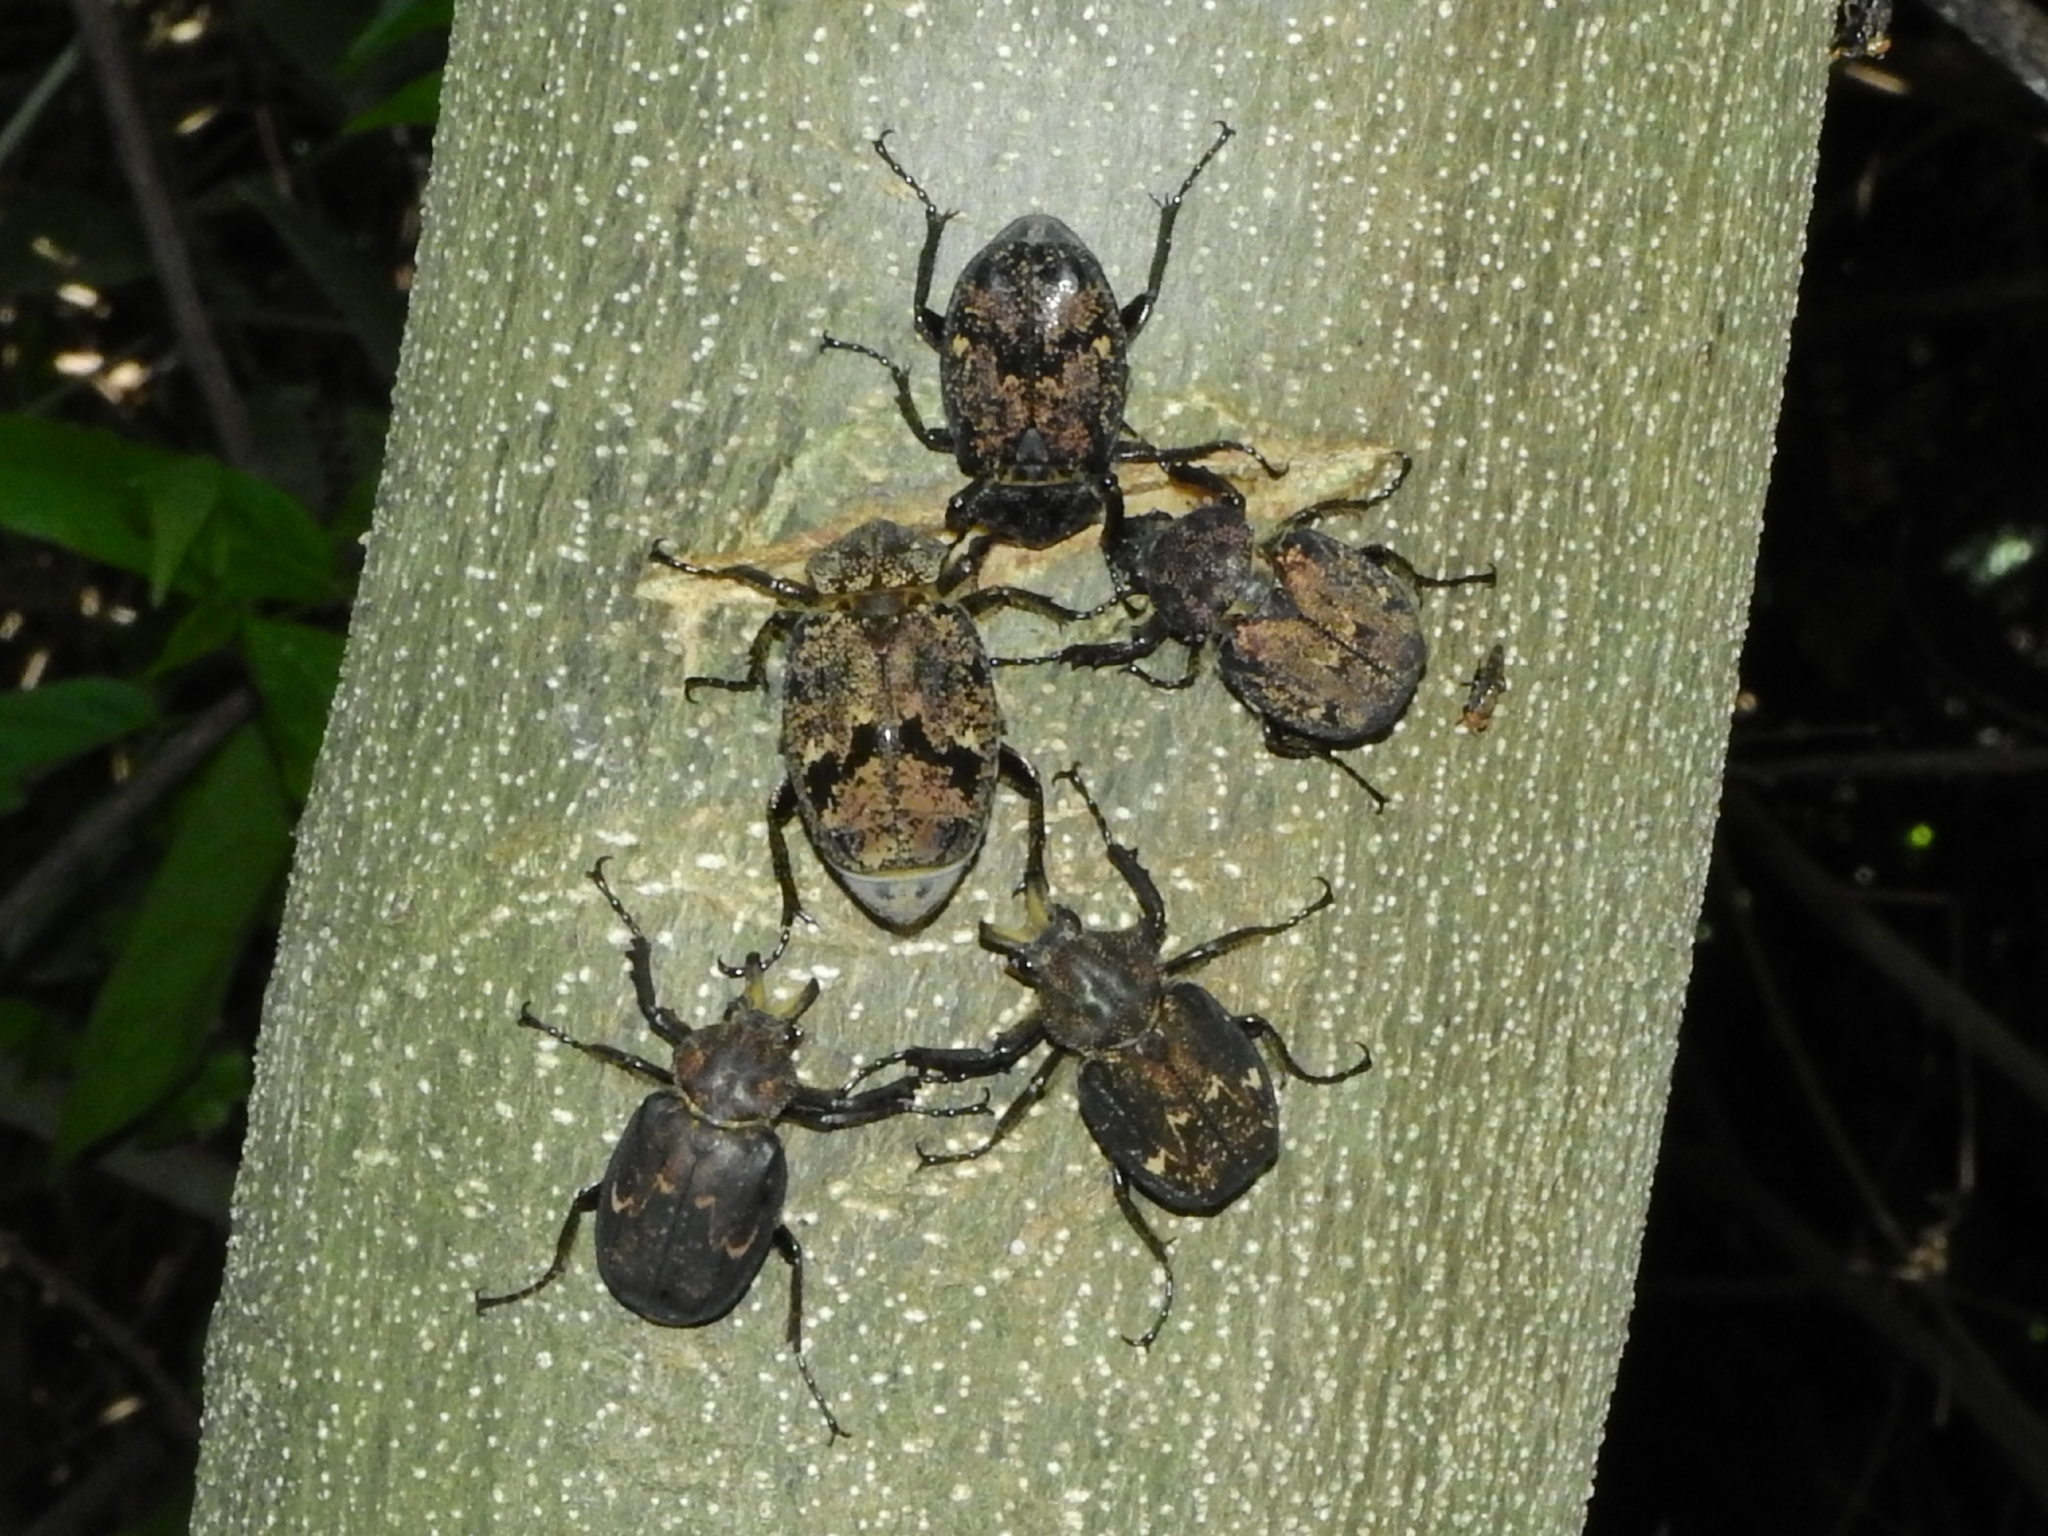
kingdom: Animalia
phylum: Arthropoda
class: Insecta
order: Coleoptera
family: Scarabaeidae
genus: Inca
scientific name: Inca besckii
